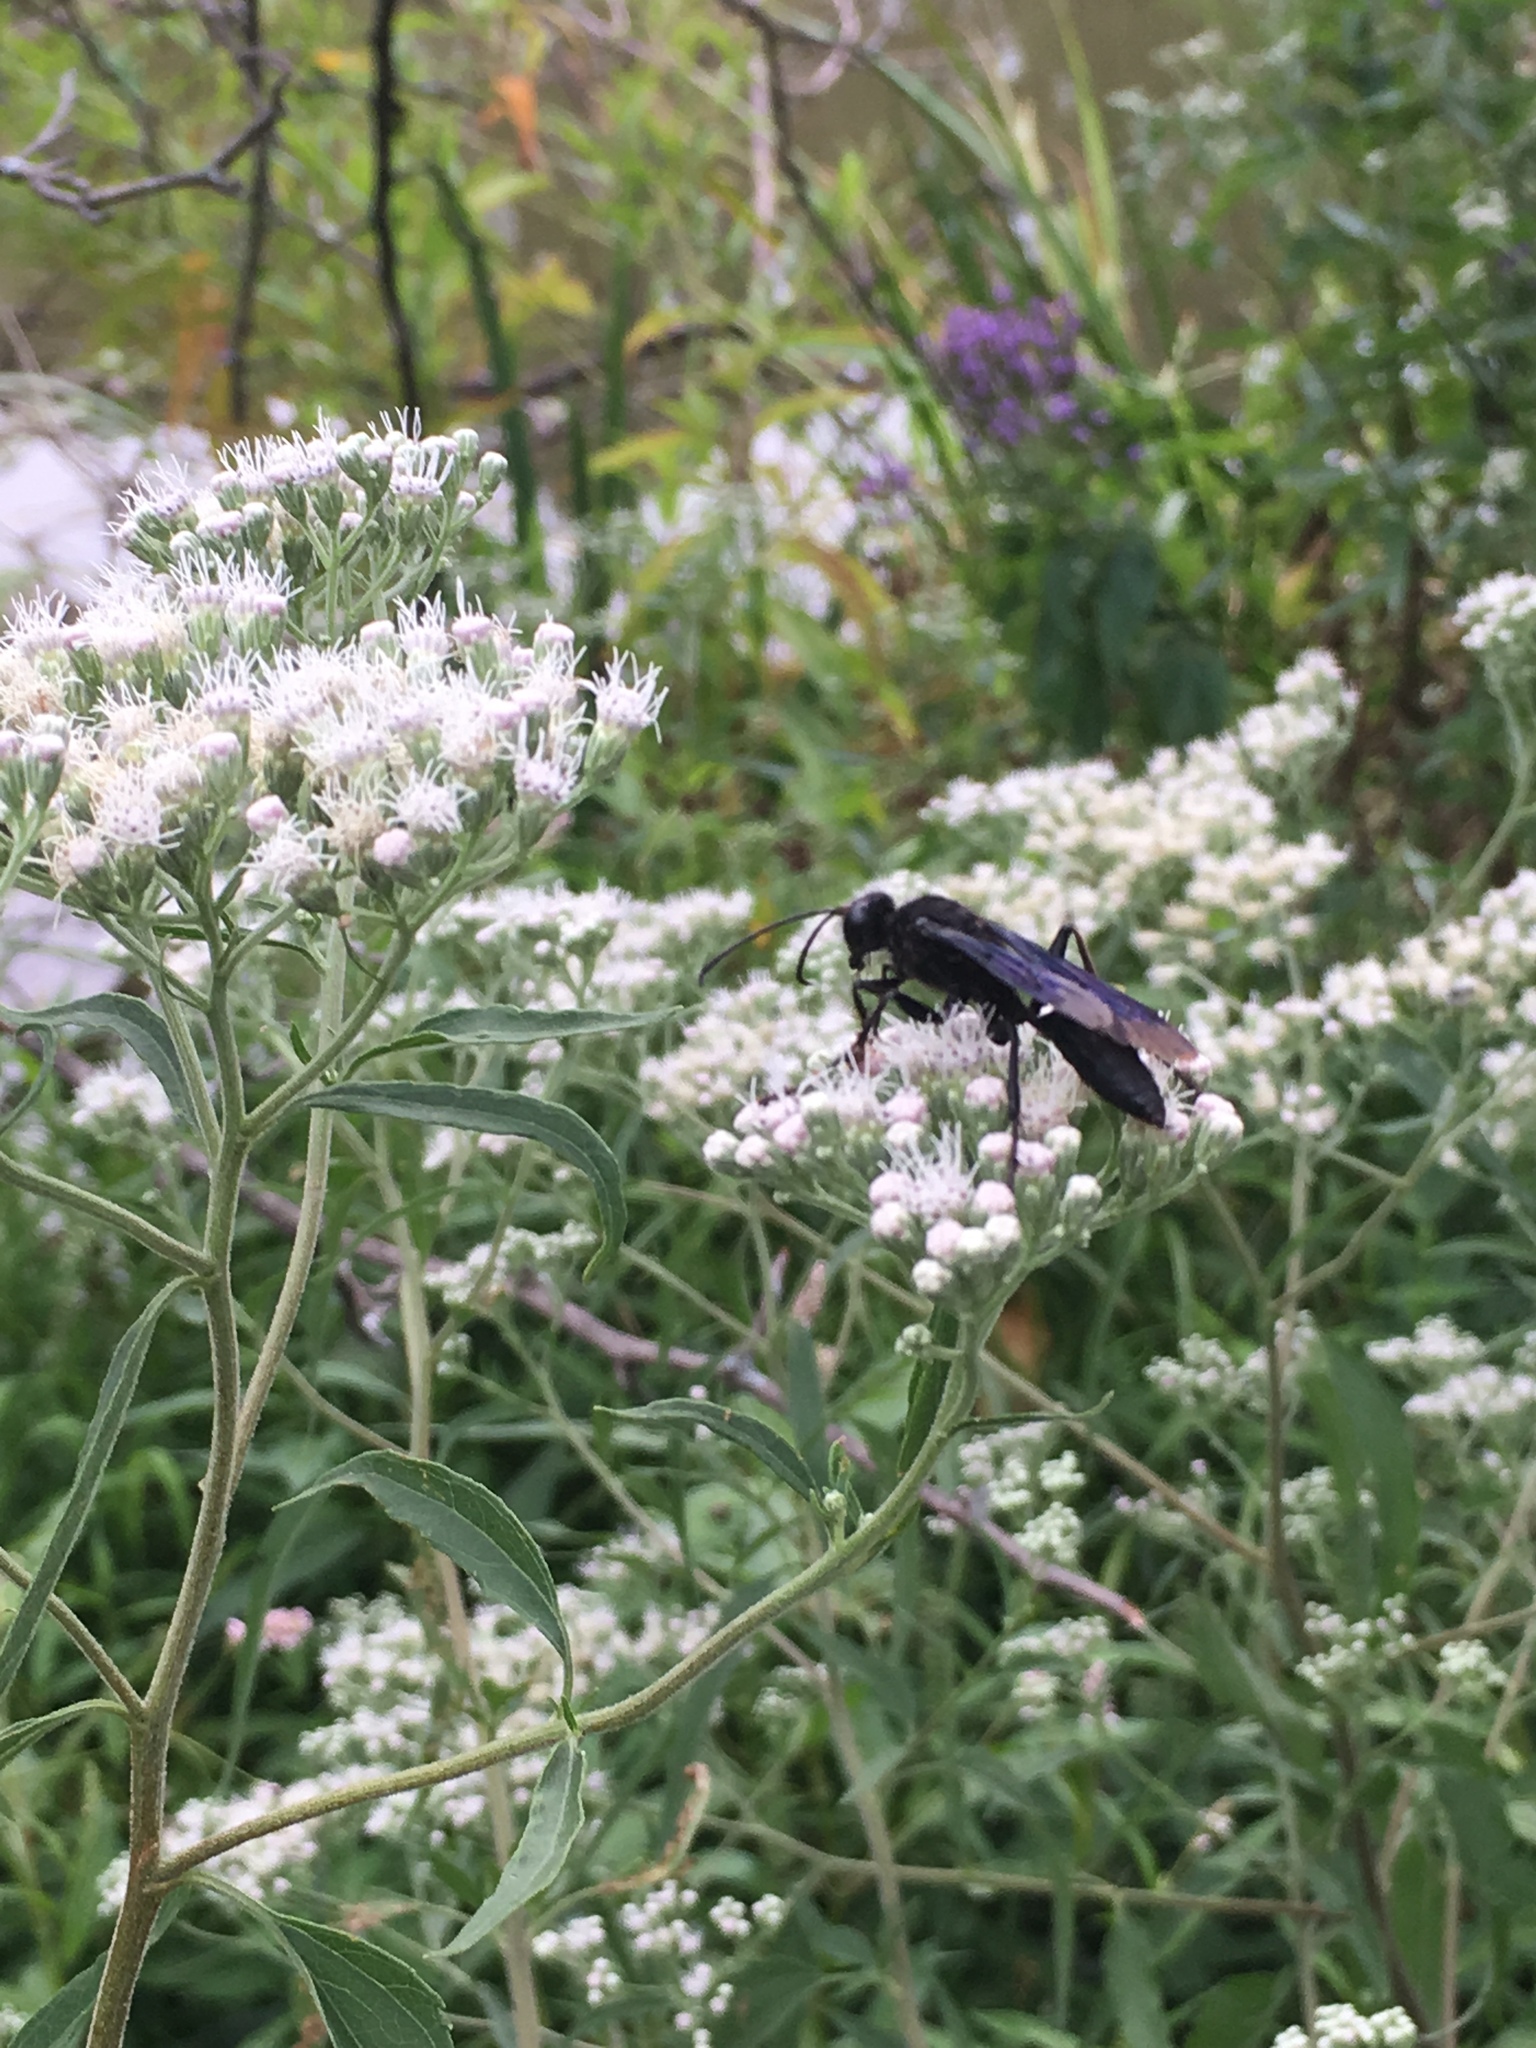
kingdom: Animalia
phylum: Arthropoda
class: Insecta
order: Hymenoptera
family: Sphecidae
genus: Sphex
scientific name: Sphex pensylvanicus
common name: Great black digger wasp
